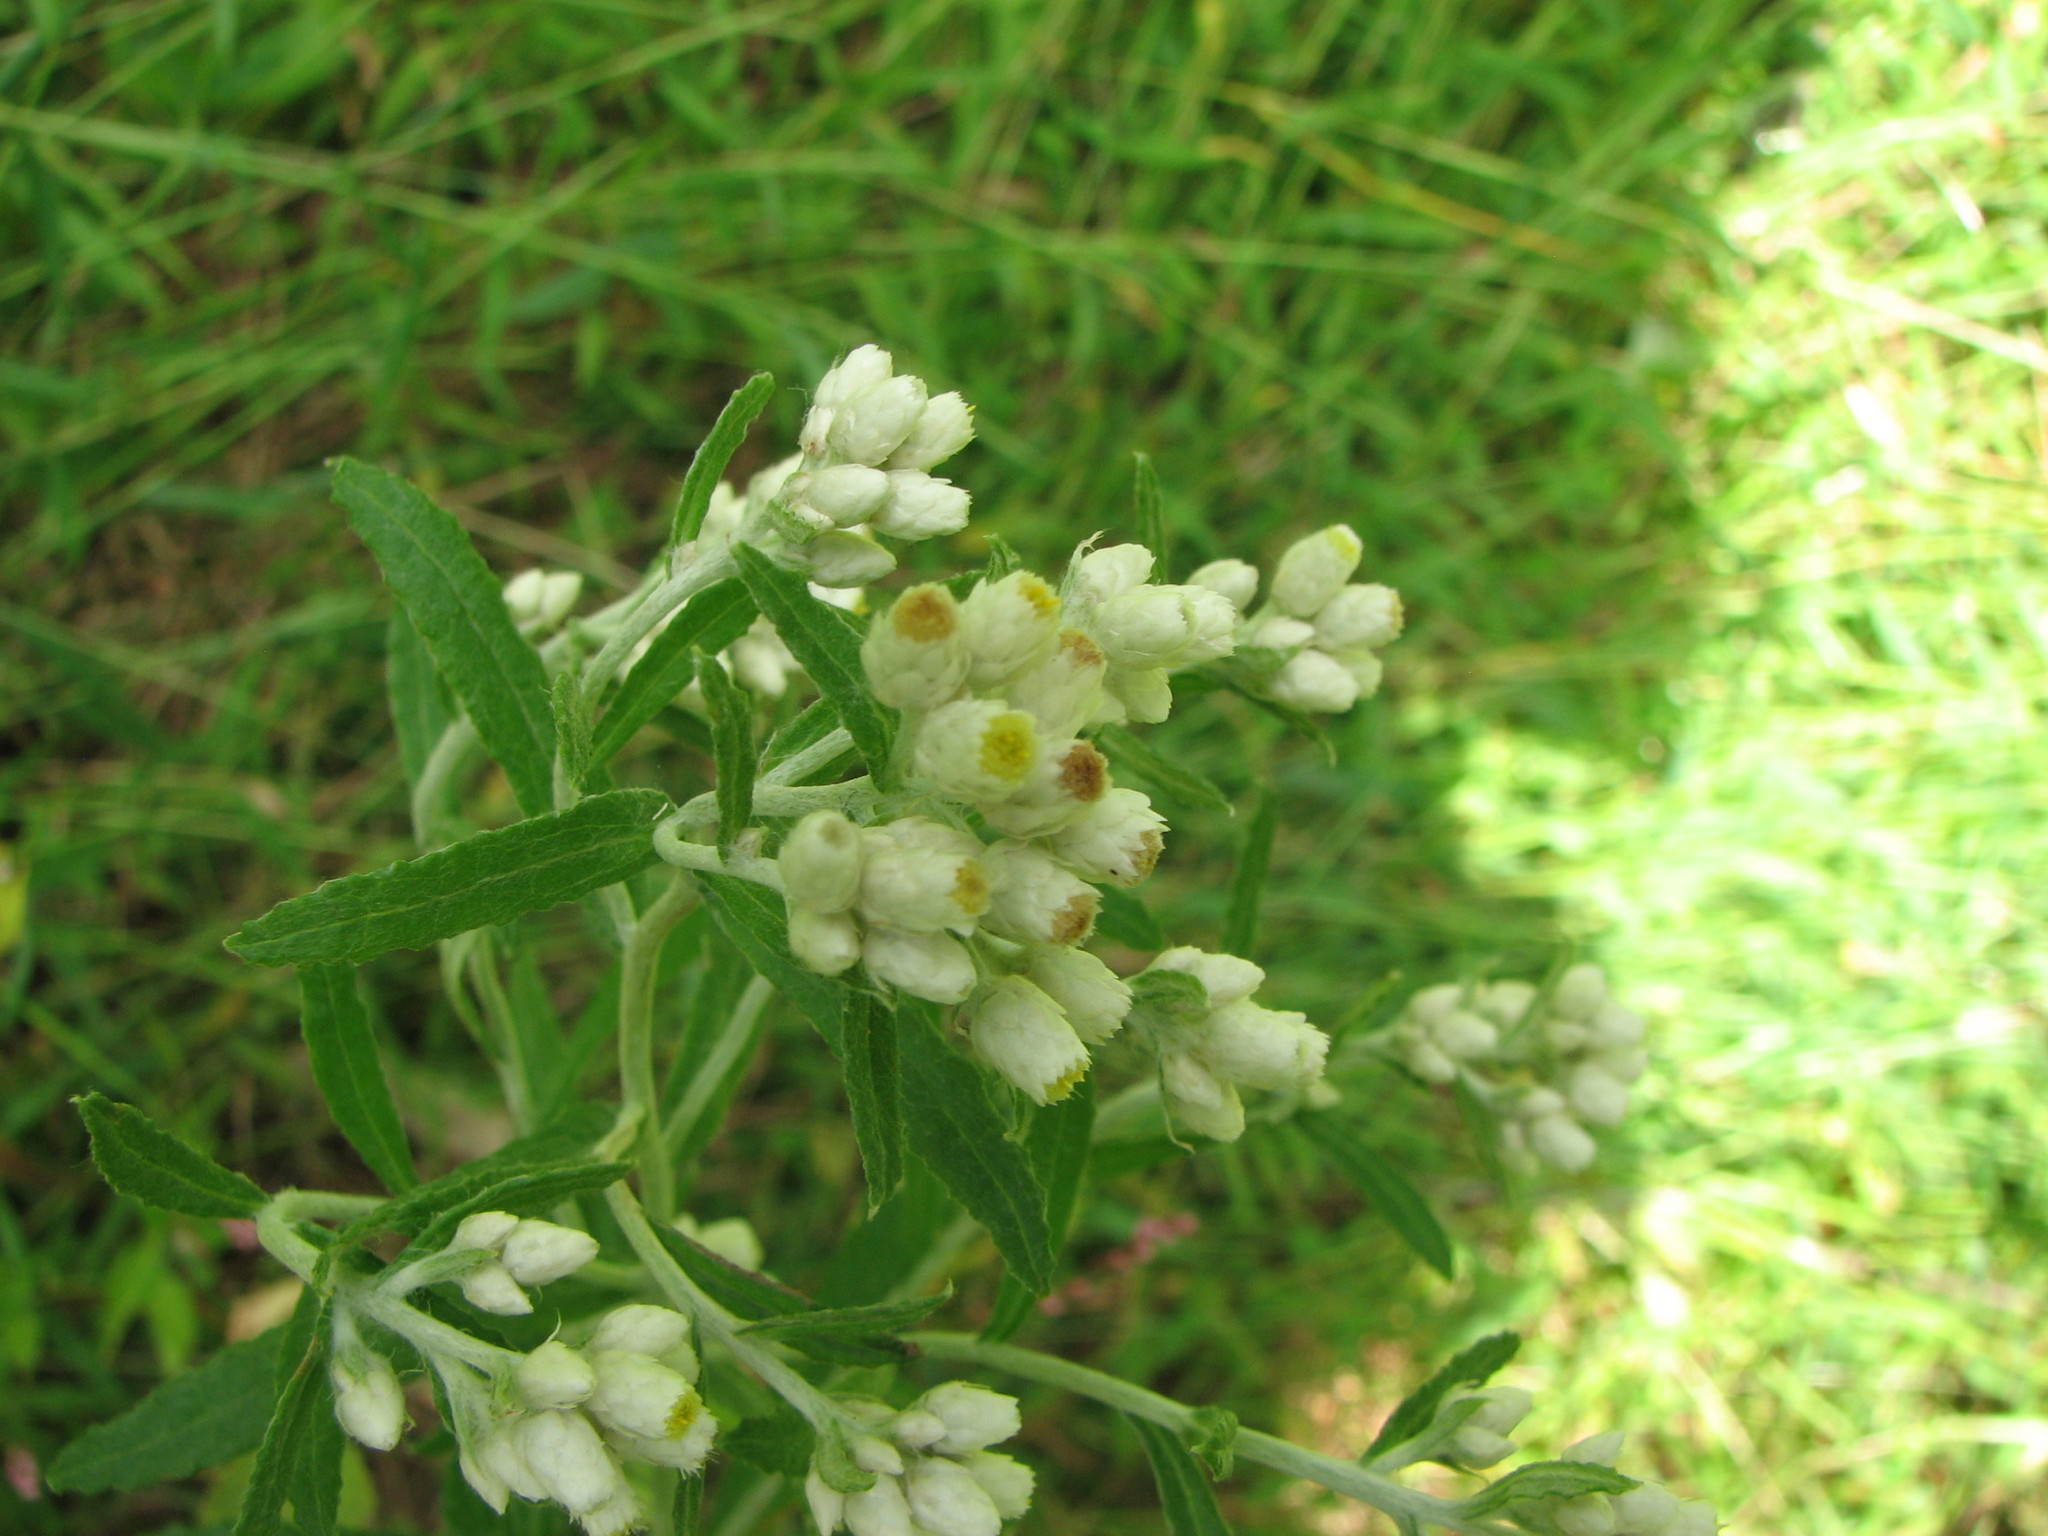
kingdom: Plantae
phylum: Tracheophyta
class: Magnoliopsida
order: Asterales
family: Asteraceae
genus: Pseudognaphalium
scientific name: Pseudognaphalium obtusifolium
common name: Eastern rabbit-tobacco
